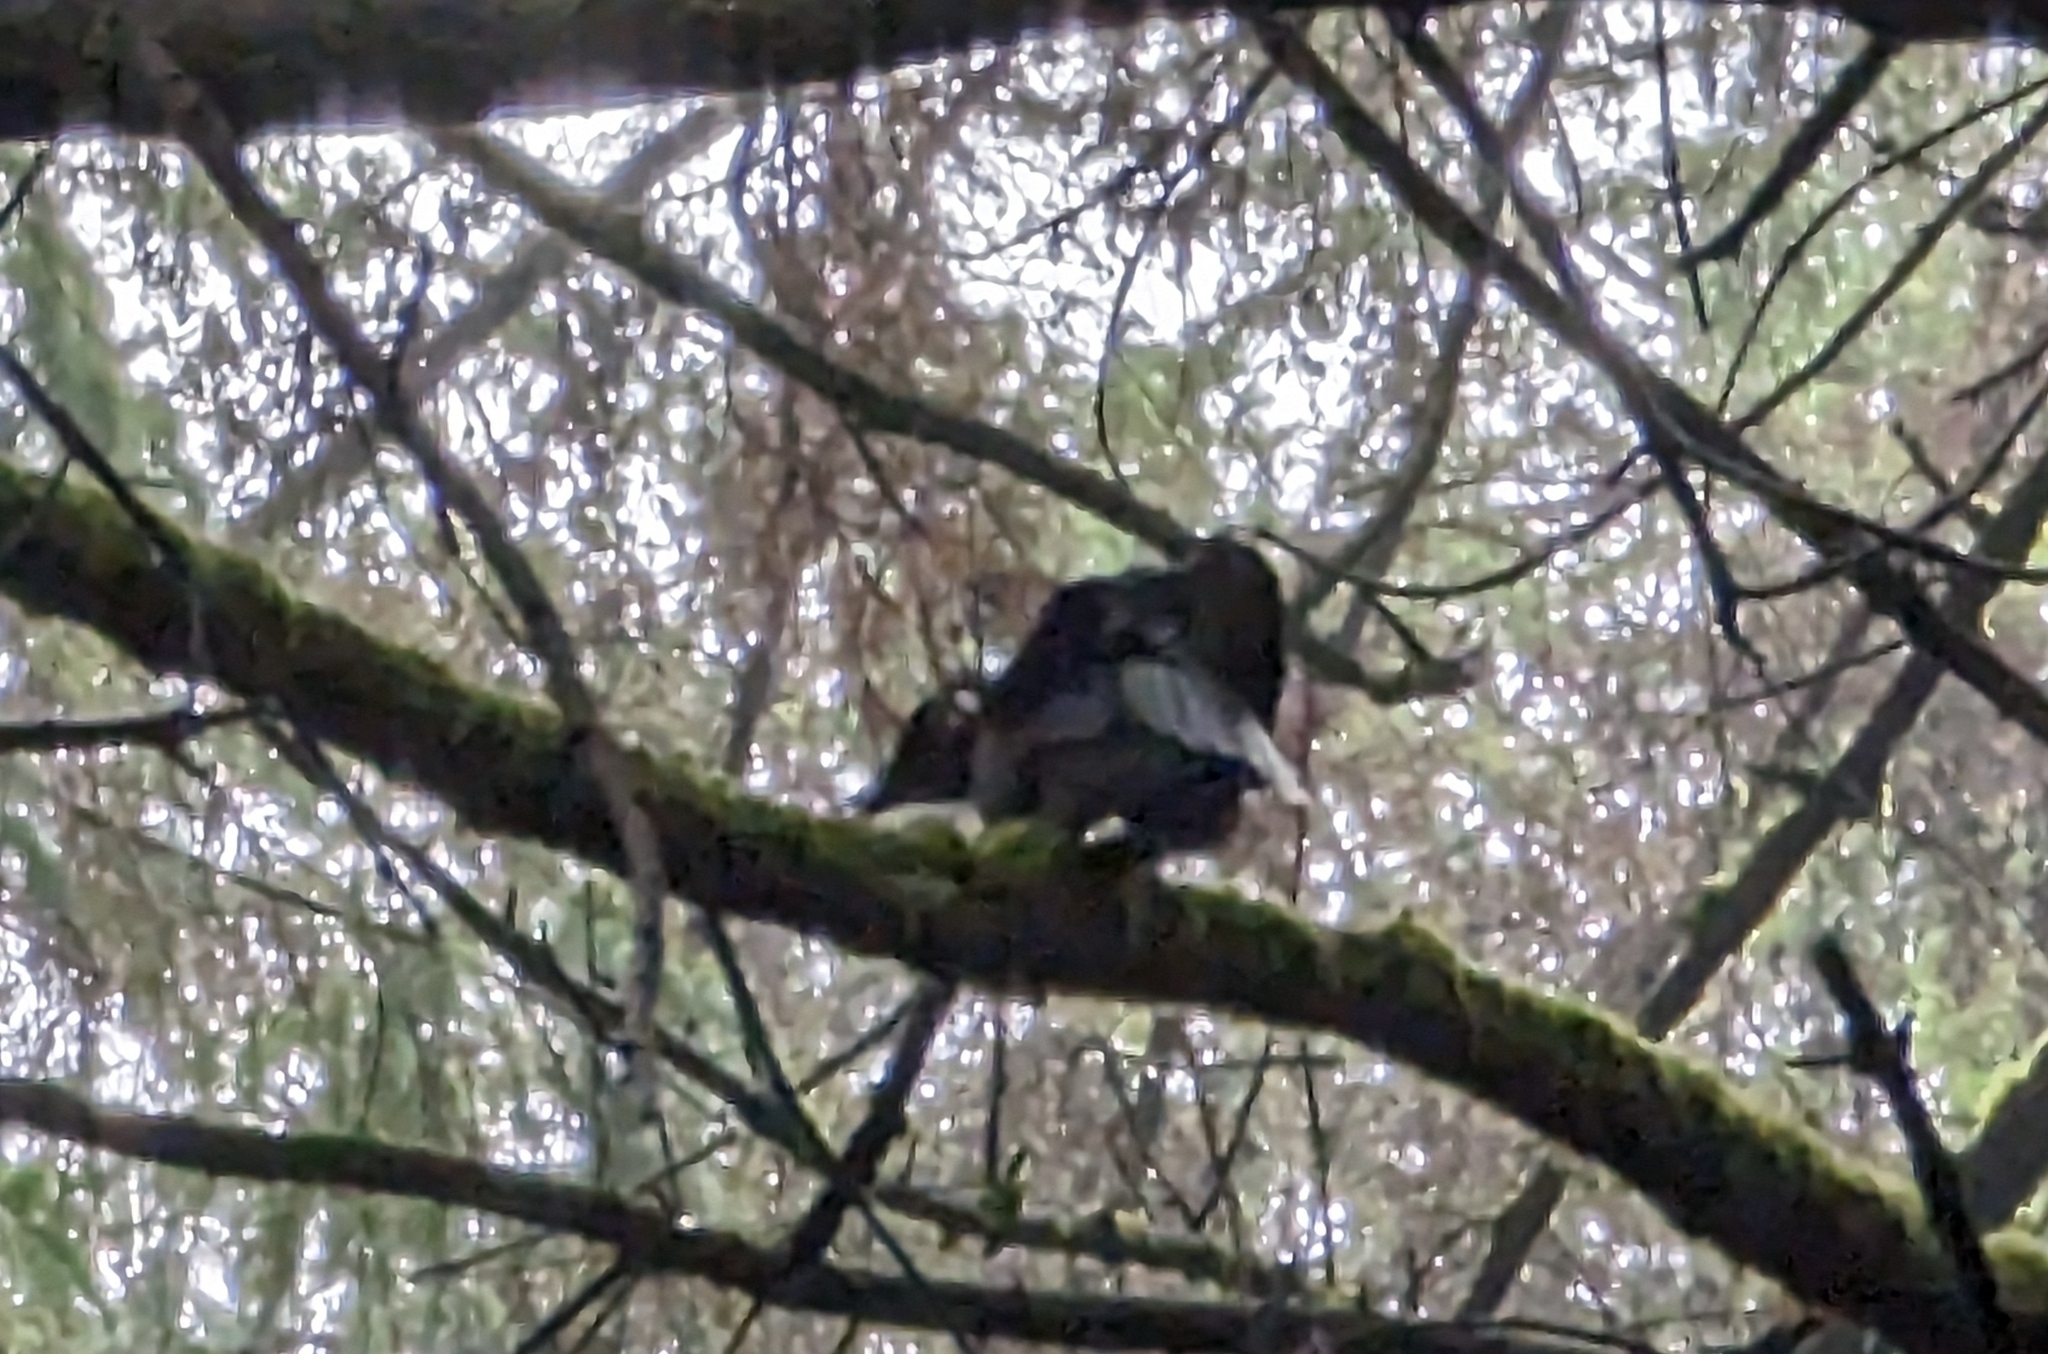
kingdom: Animalia
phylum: Chordata
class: Aves
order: Passeriformes
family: Corvidae
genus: Corvus
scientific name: Corvus brachyrhynchos
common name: American crow
